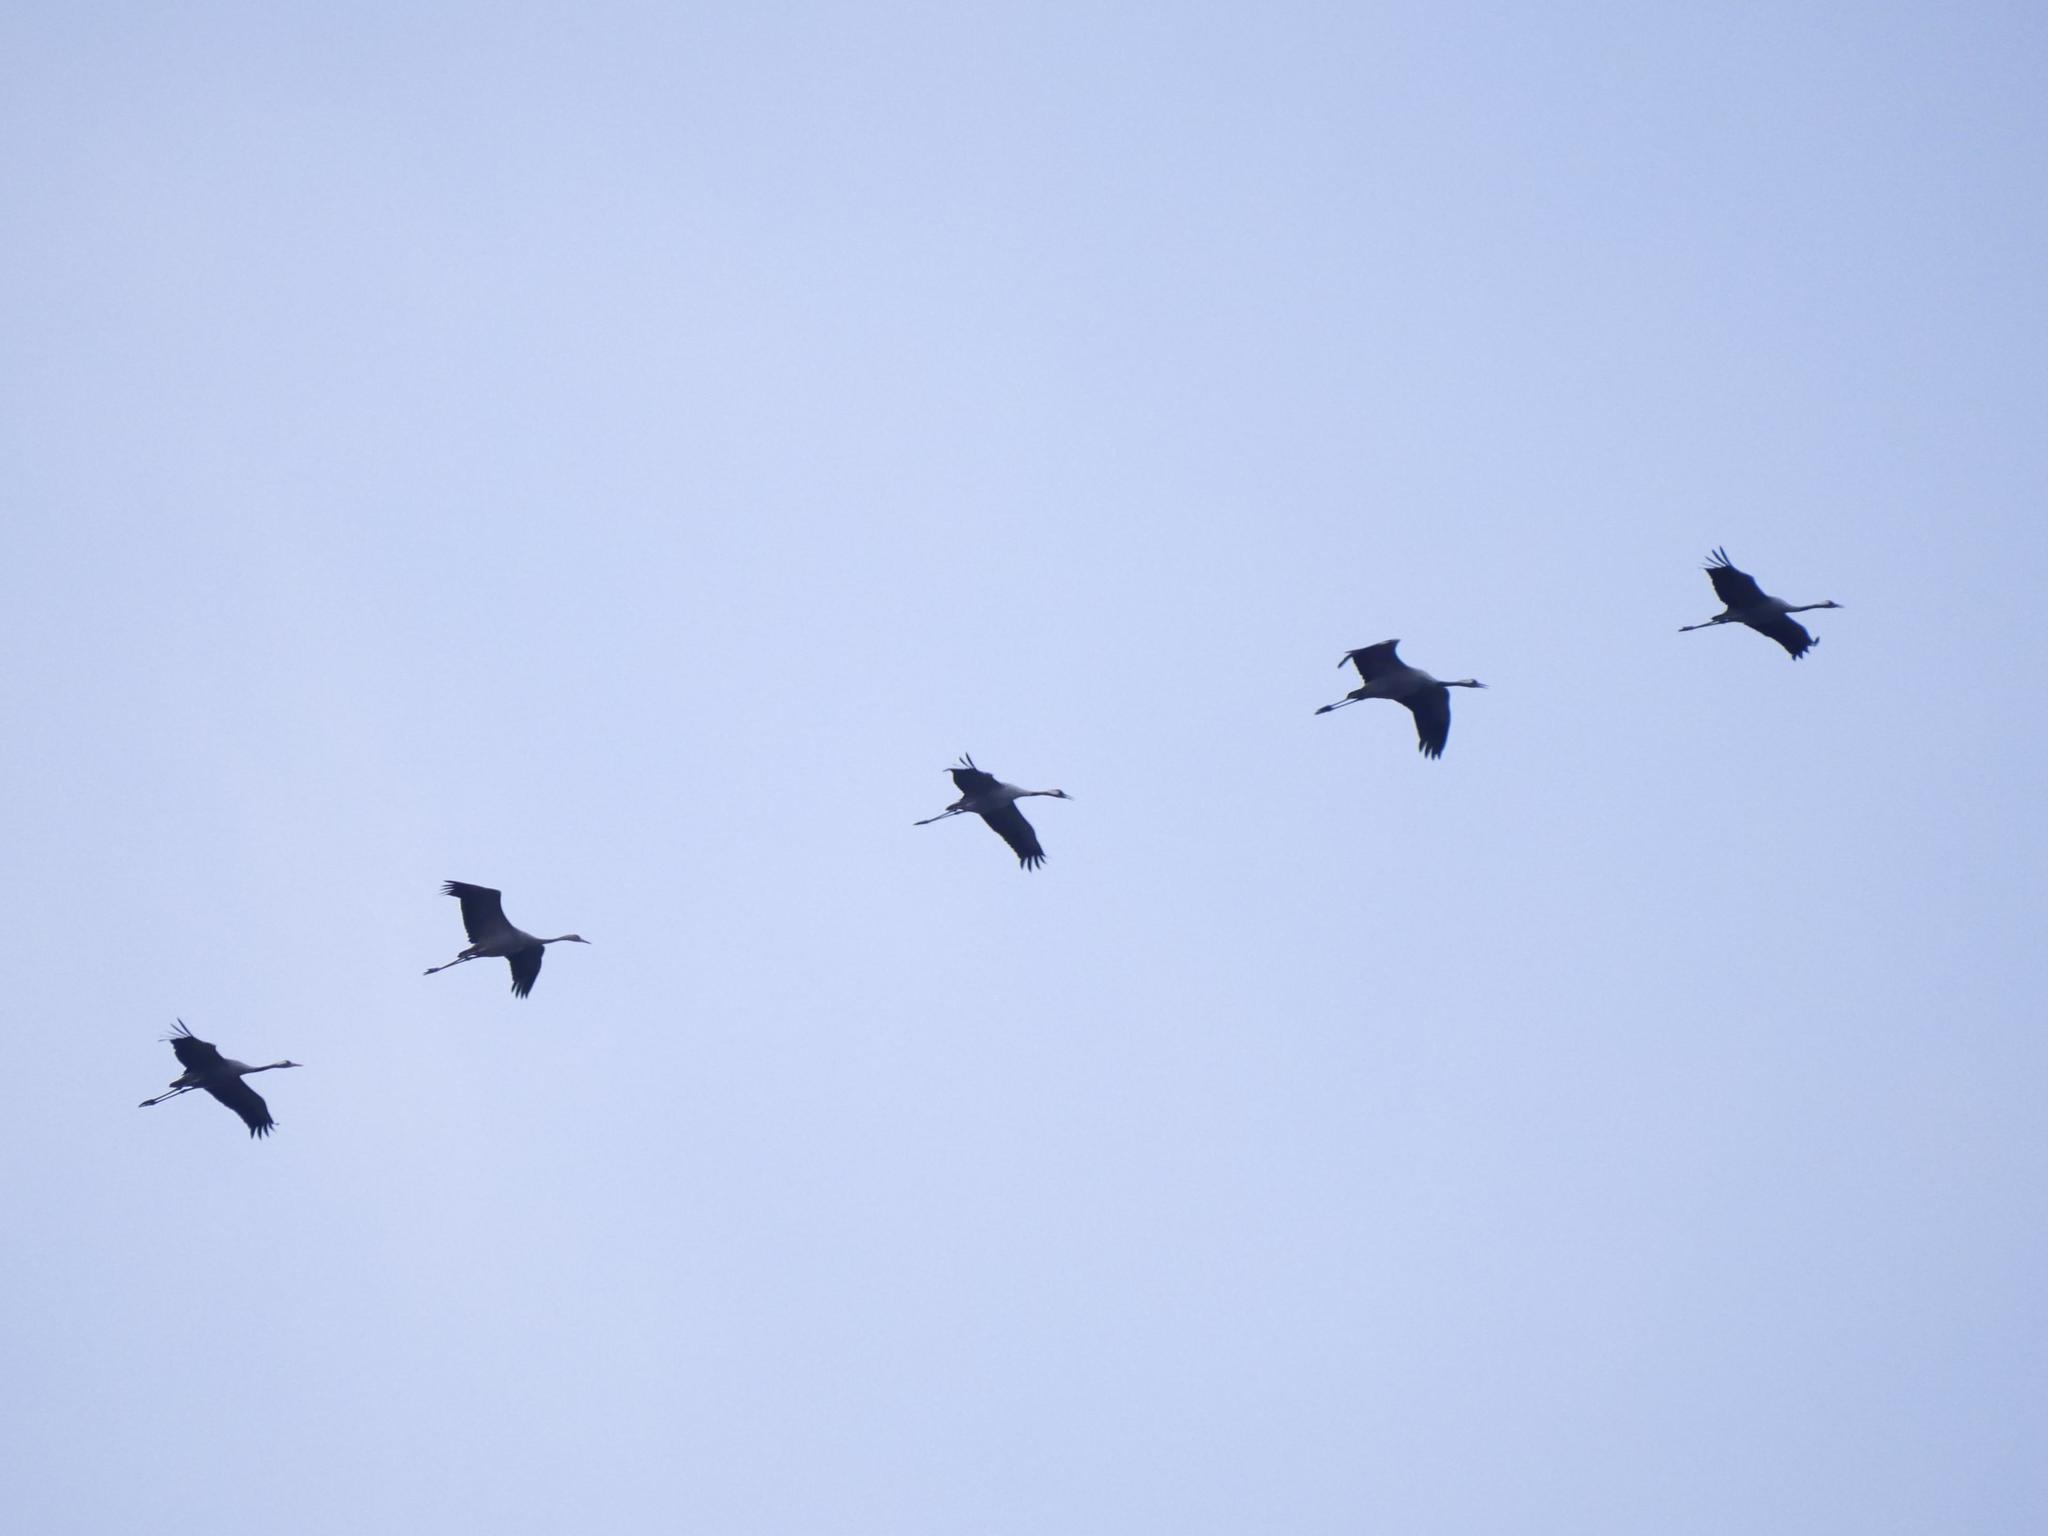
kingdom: Animalia
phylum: Chordata
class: Aves
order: Gruiformes
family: Gruidae
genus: Grus
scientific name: Grus grus
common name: Common crane
